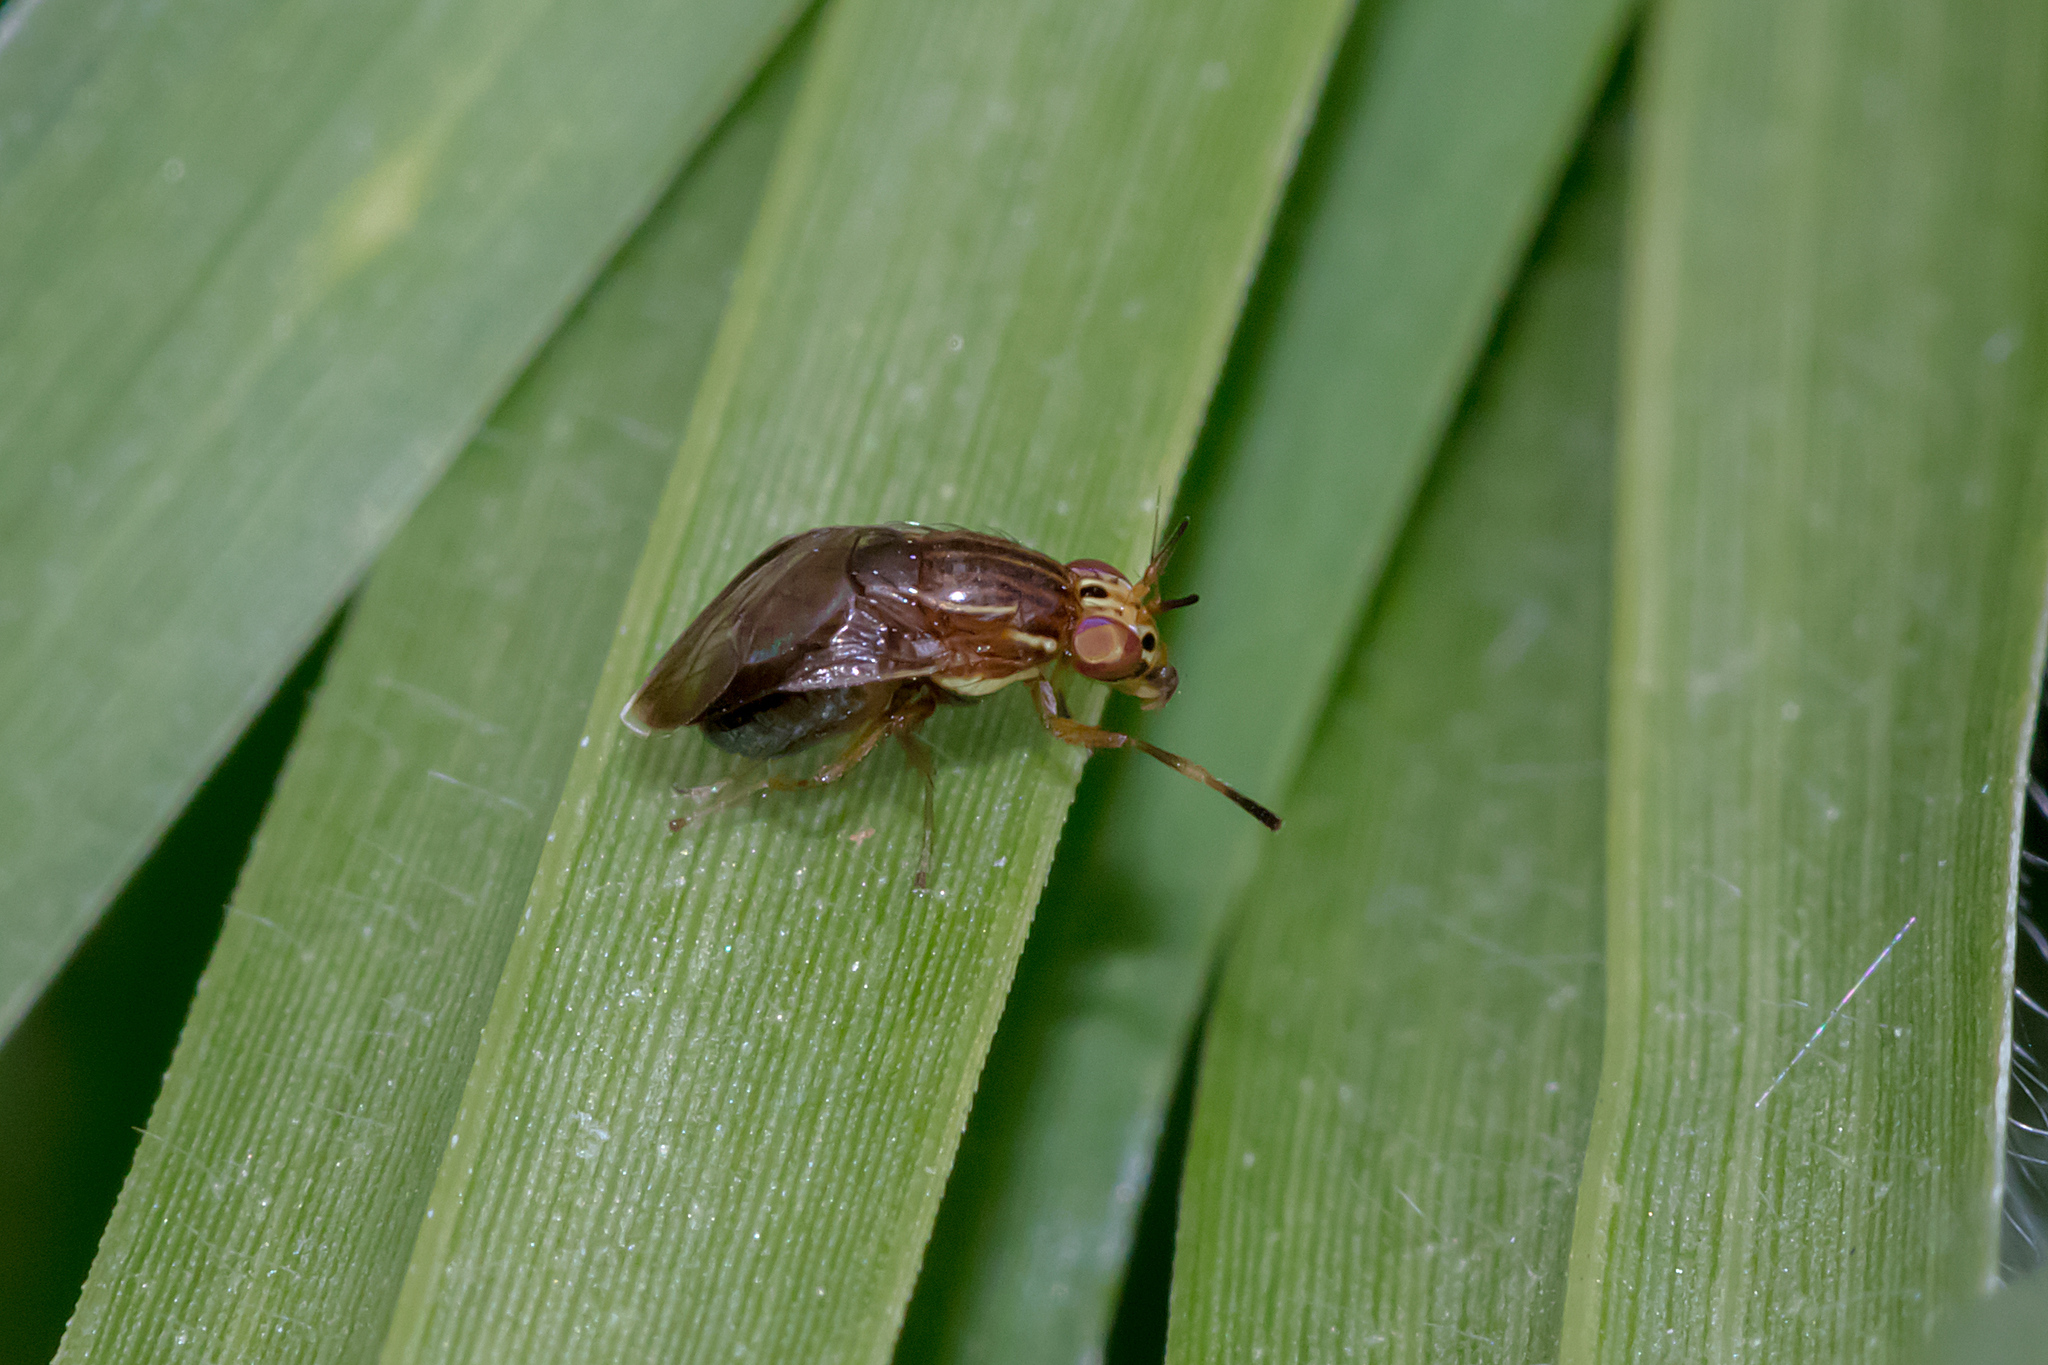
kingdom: Animalia
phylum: Arthropoda
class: Insecta
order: Diptera
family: Lauxaniidae
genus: Steganopsis
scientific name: Steganopsis melanogaster
